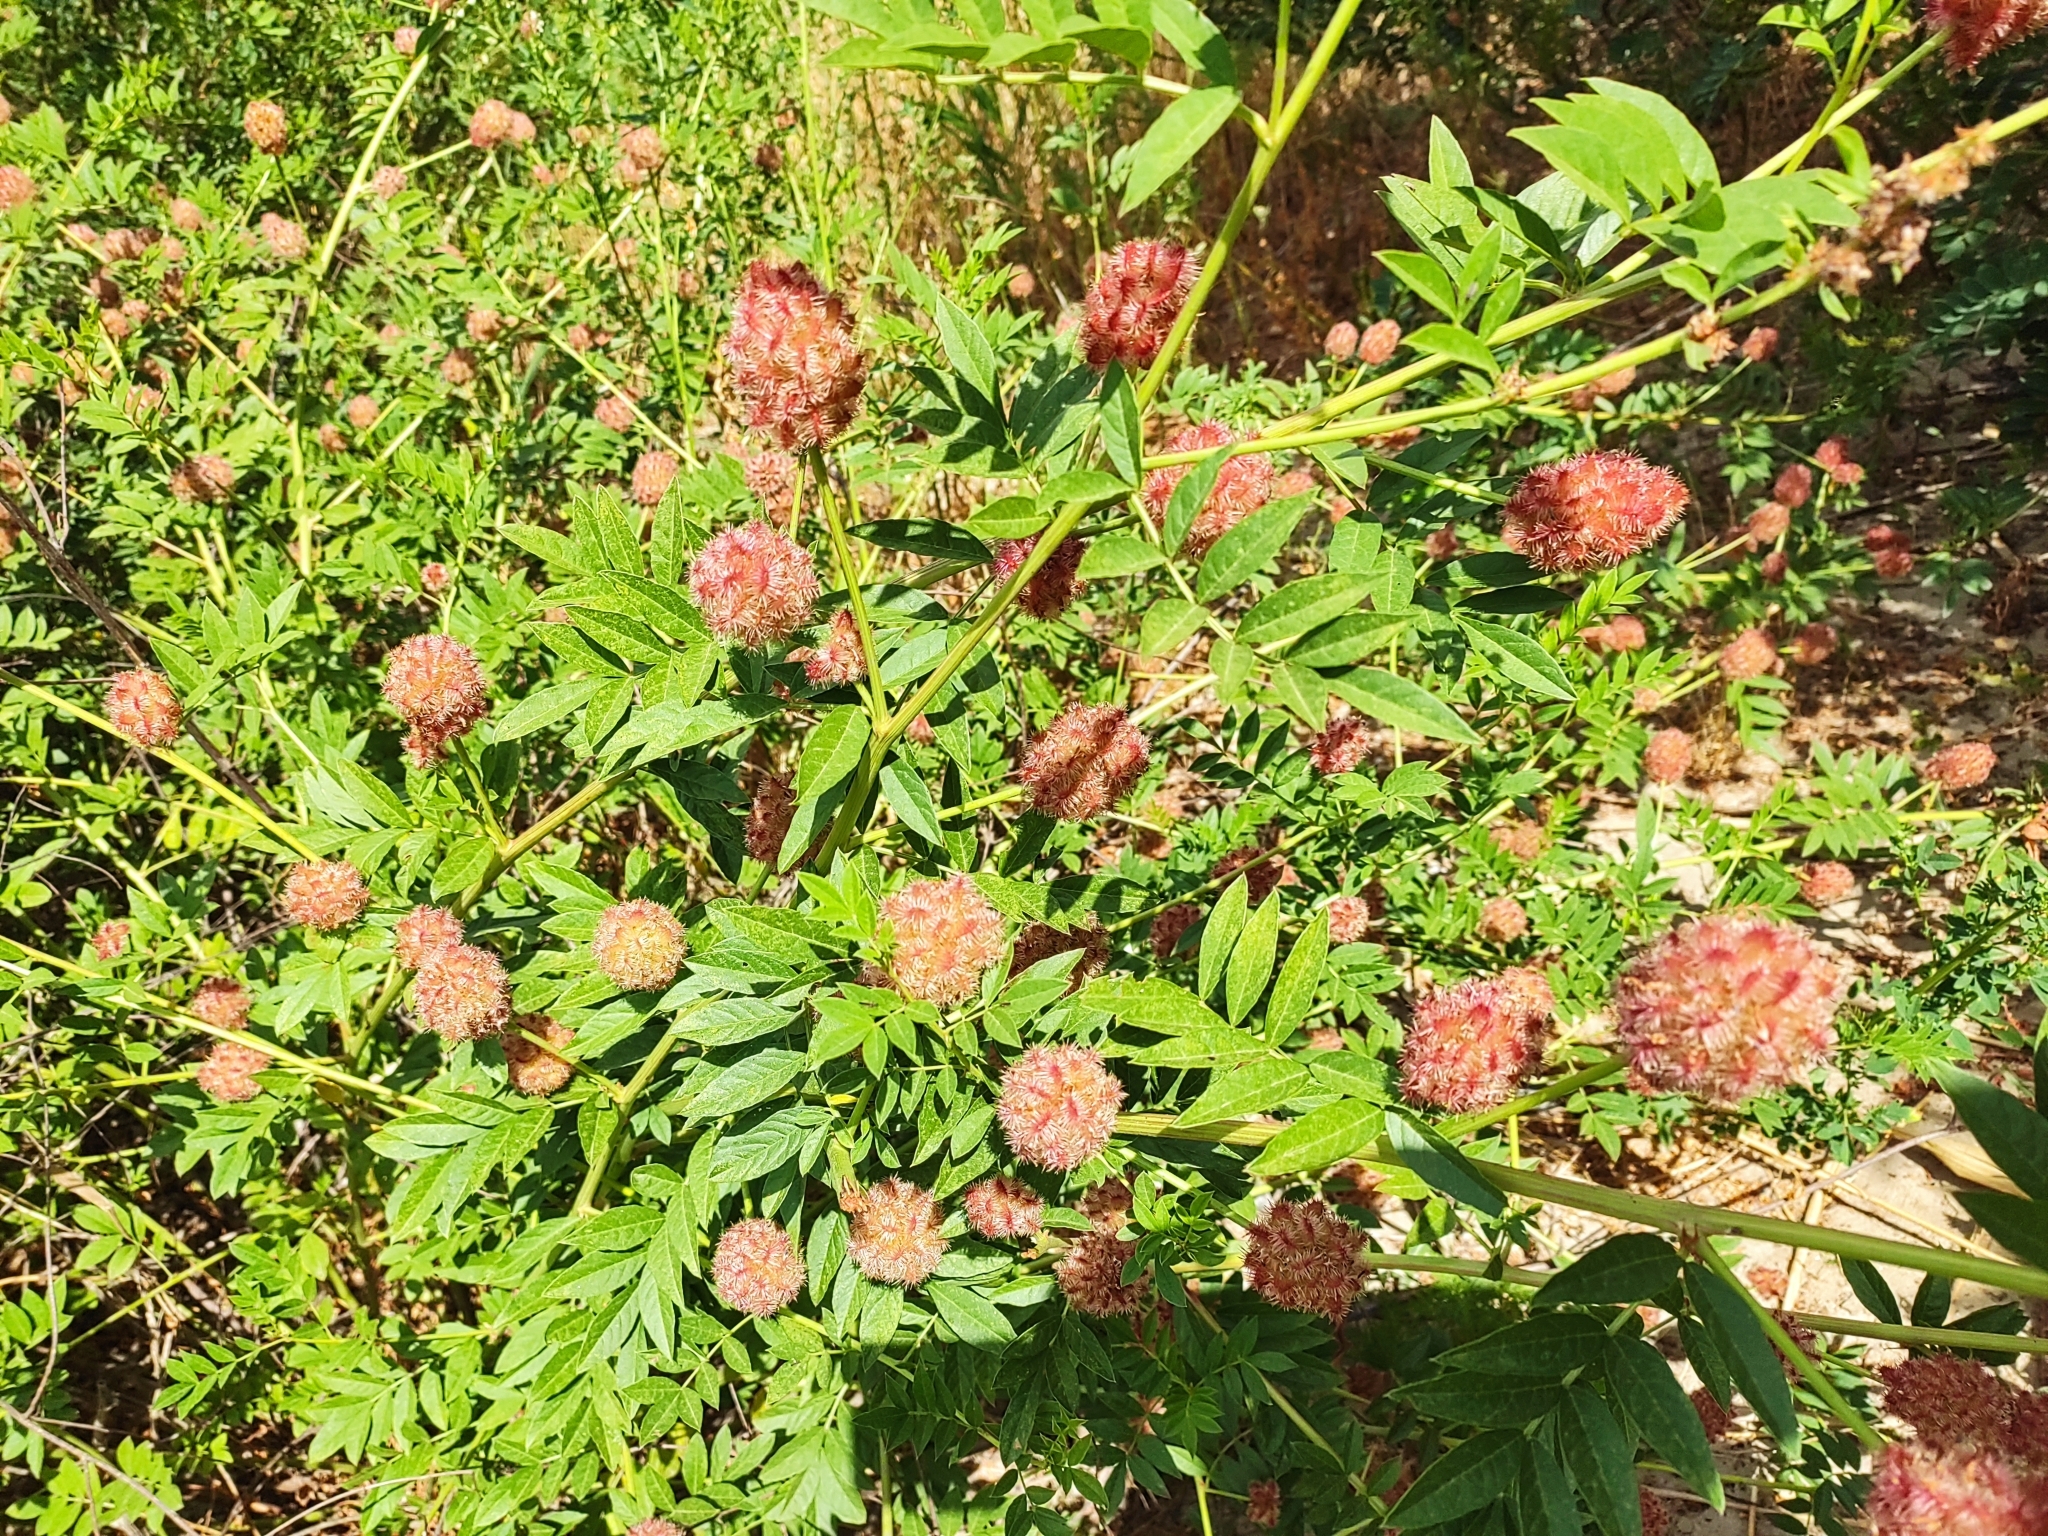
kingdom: Plantae
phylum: Tracheophyta
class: Magnoliopsida
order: Fabales
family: Fabaceae
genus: Glycyrrhiza
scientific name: Glycyrrhiza echinata
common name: German liquorice
